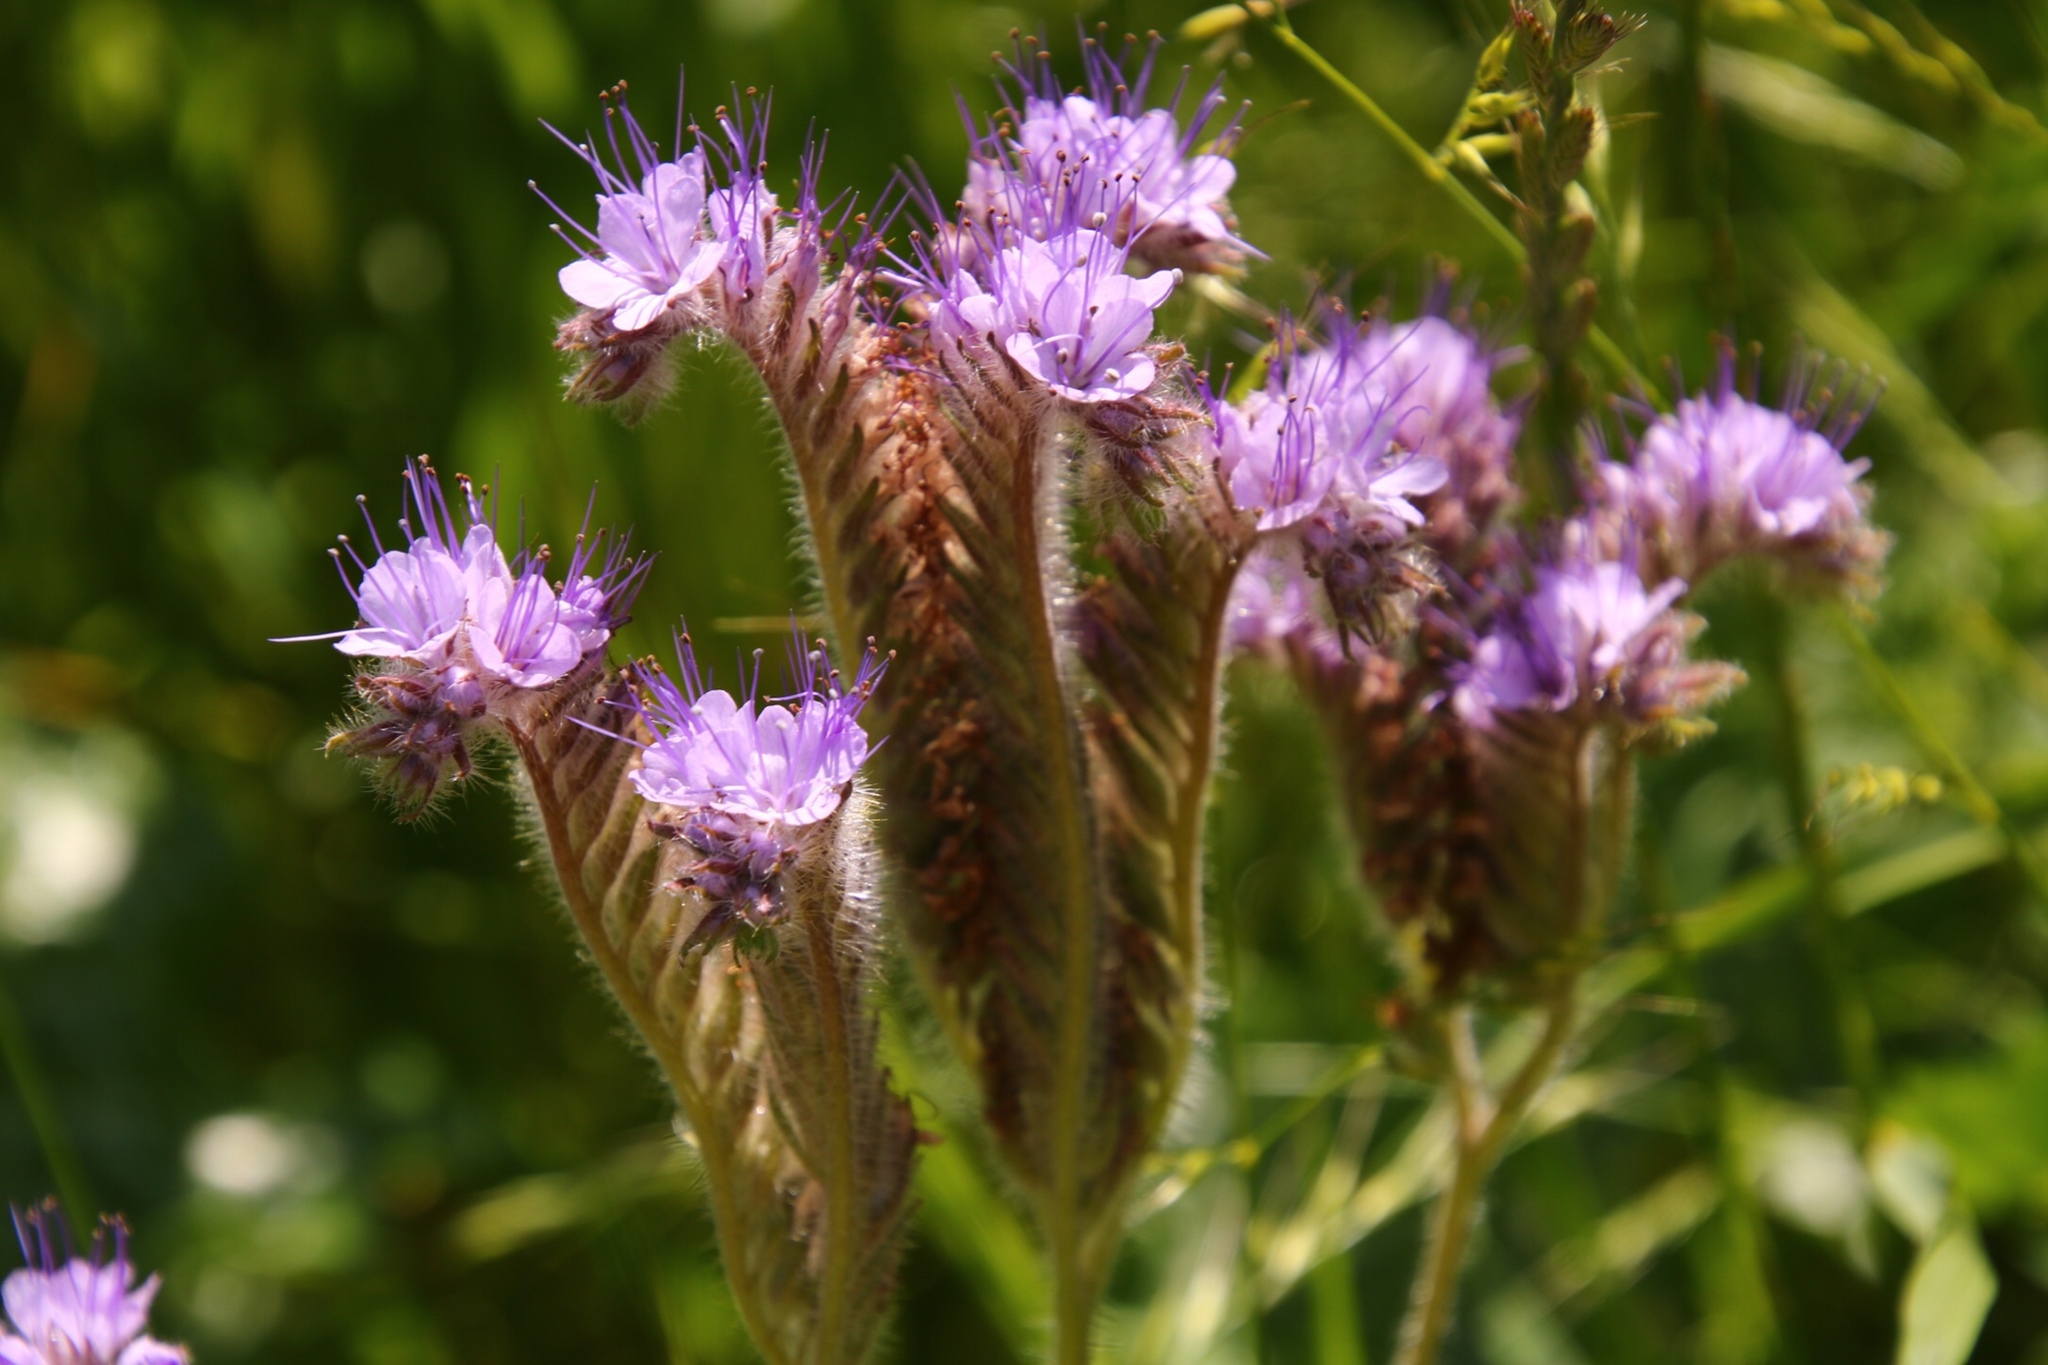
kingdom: Plantae
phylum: Tracheophyta
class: Magnoliopsida
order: Boraginales
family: Hydrophyllaceae
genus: Phacelia
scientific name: Phacelia tanacetifolia
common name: Phacelia
